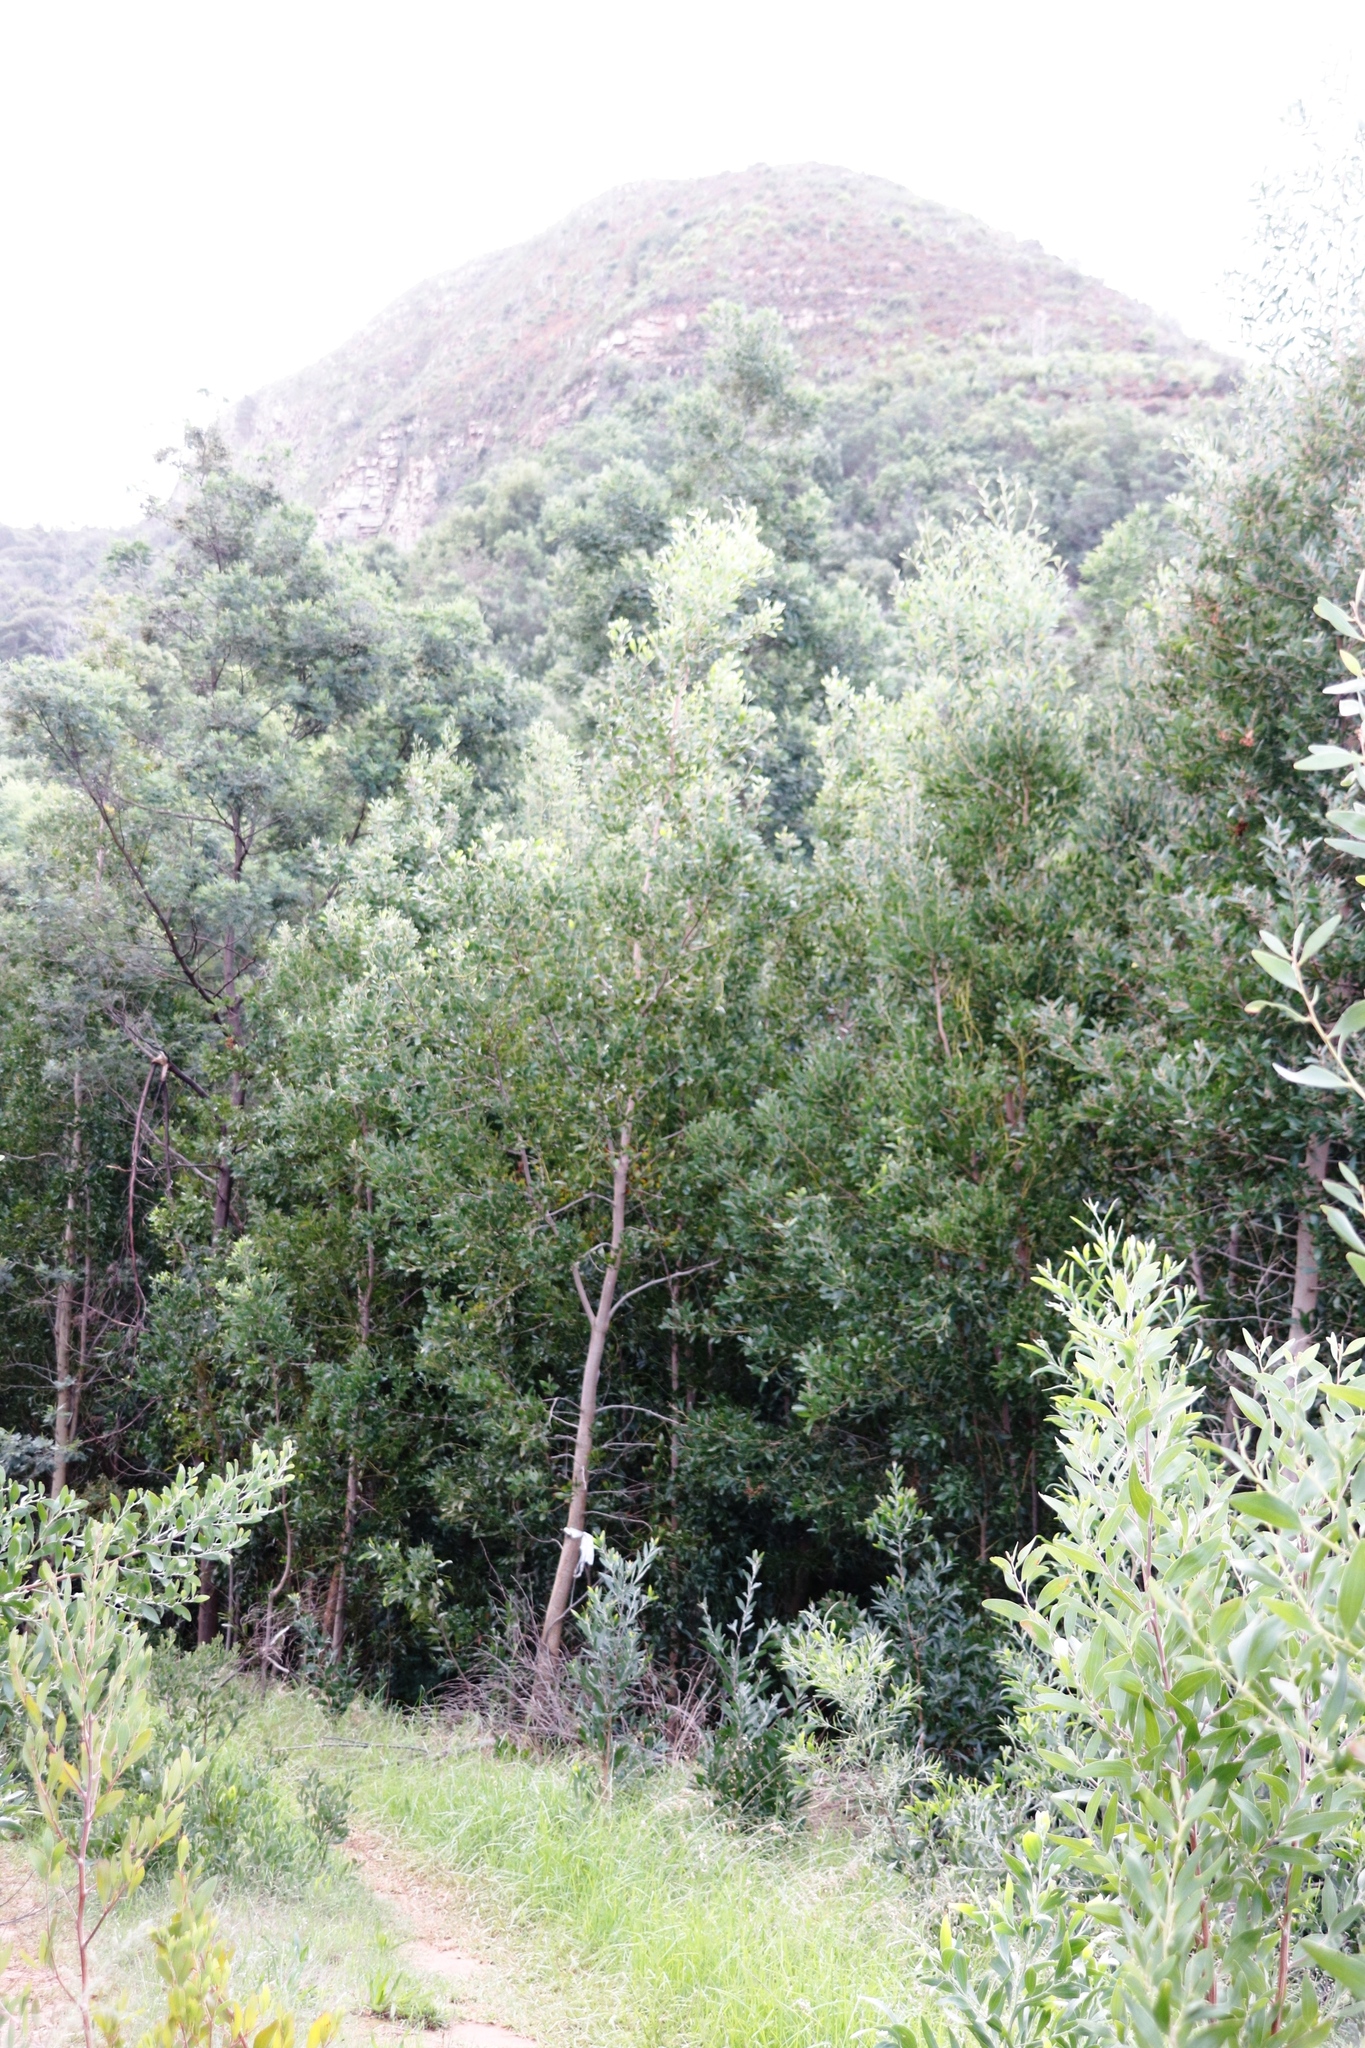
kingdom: Plantae
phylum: Tracheophyta
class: Magnoliopsida
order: Fabales
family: Fabaceae
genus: Acacia
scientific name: Acacia melanoxylon
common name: Blackwood
